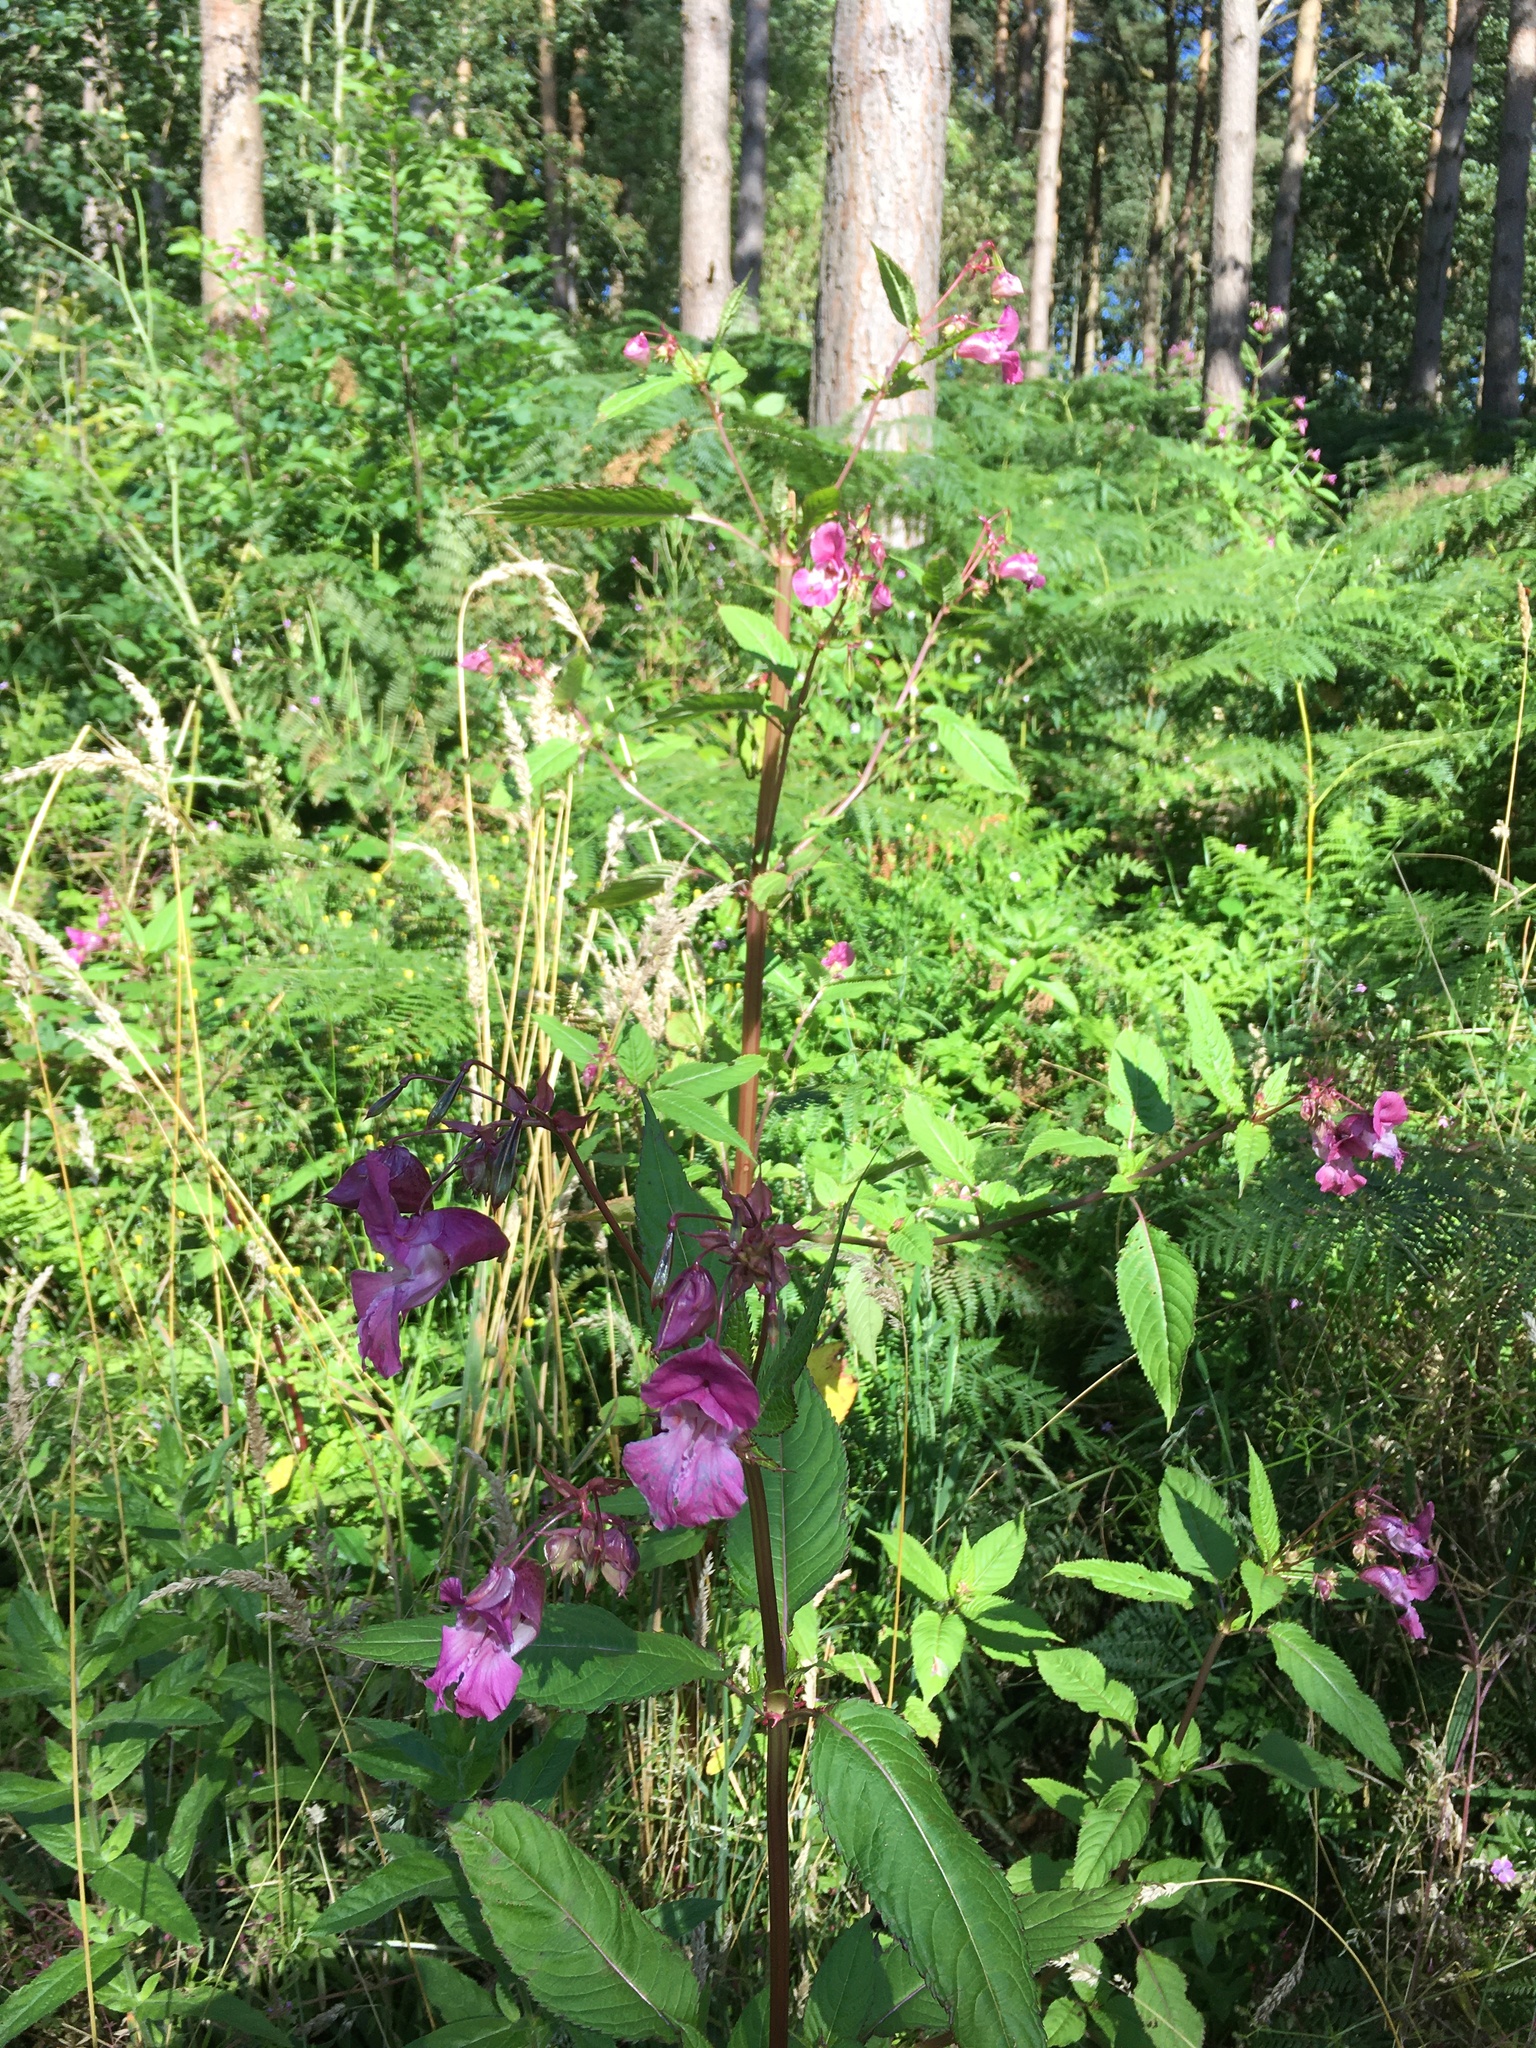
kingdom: Plantae
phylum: Tracheophyta
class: Magnoliopsida
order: Ericales
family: Balsaminaceae
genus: Impatiens
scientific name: Impatiens glandulifera
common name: Himalayan balsam
